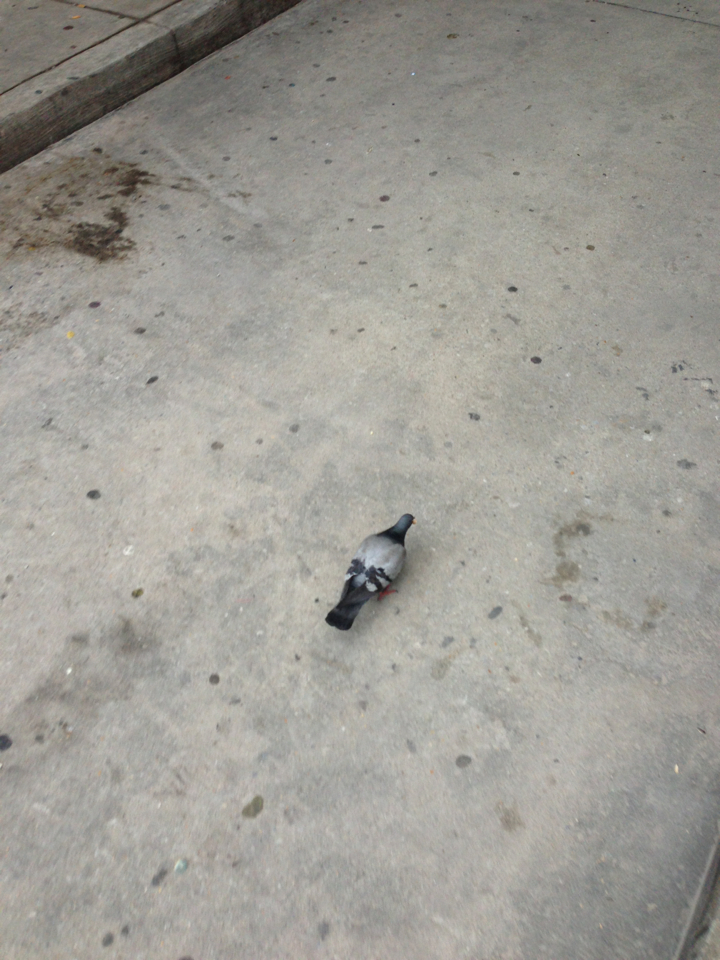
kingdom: Animalia
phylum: Chordata
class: Aves
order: Columbiformes
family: Columbidae
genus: Columba
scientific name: Columba livia
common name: Rock pigeon
